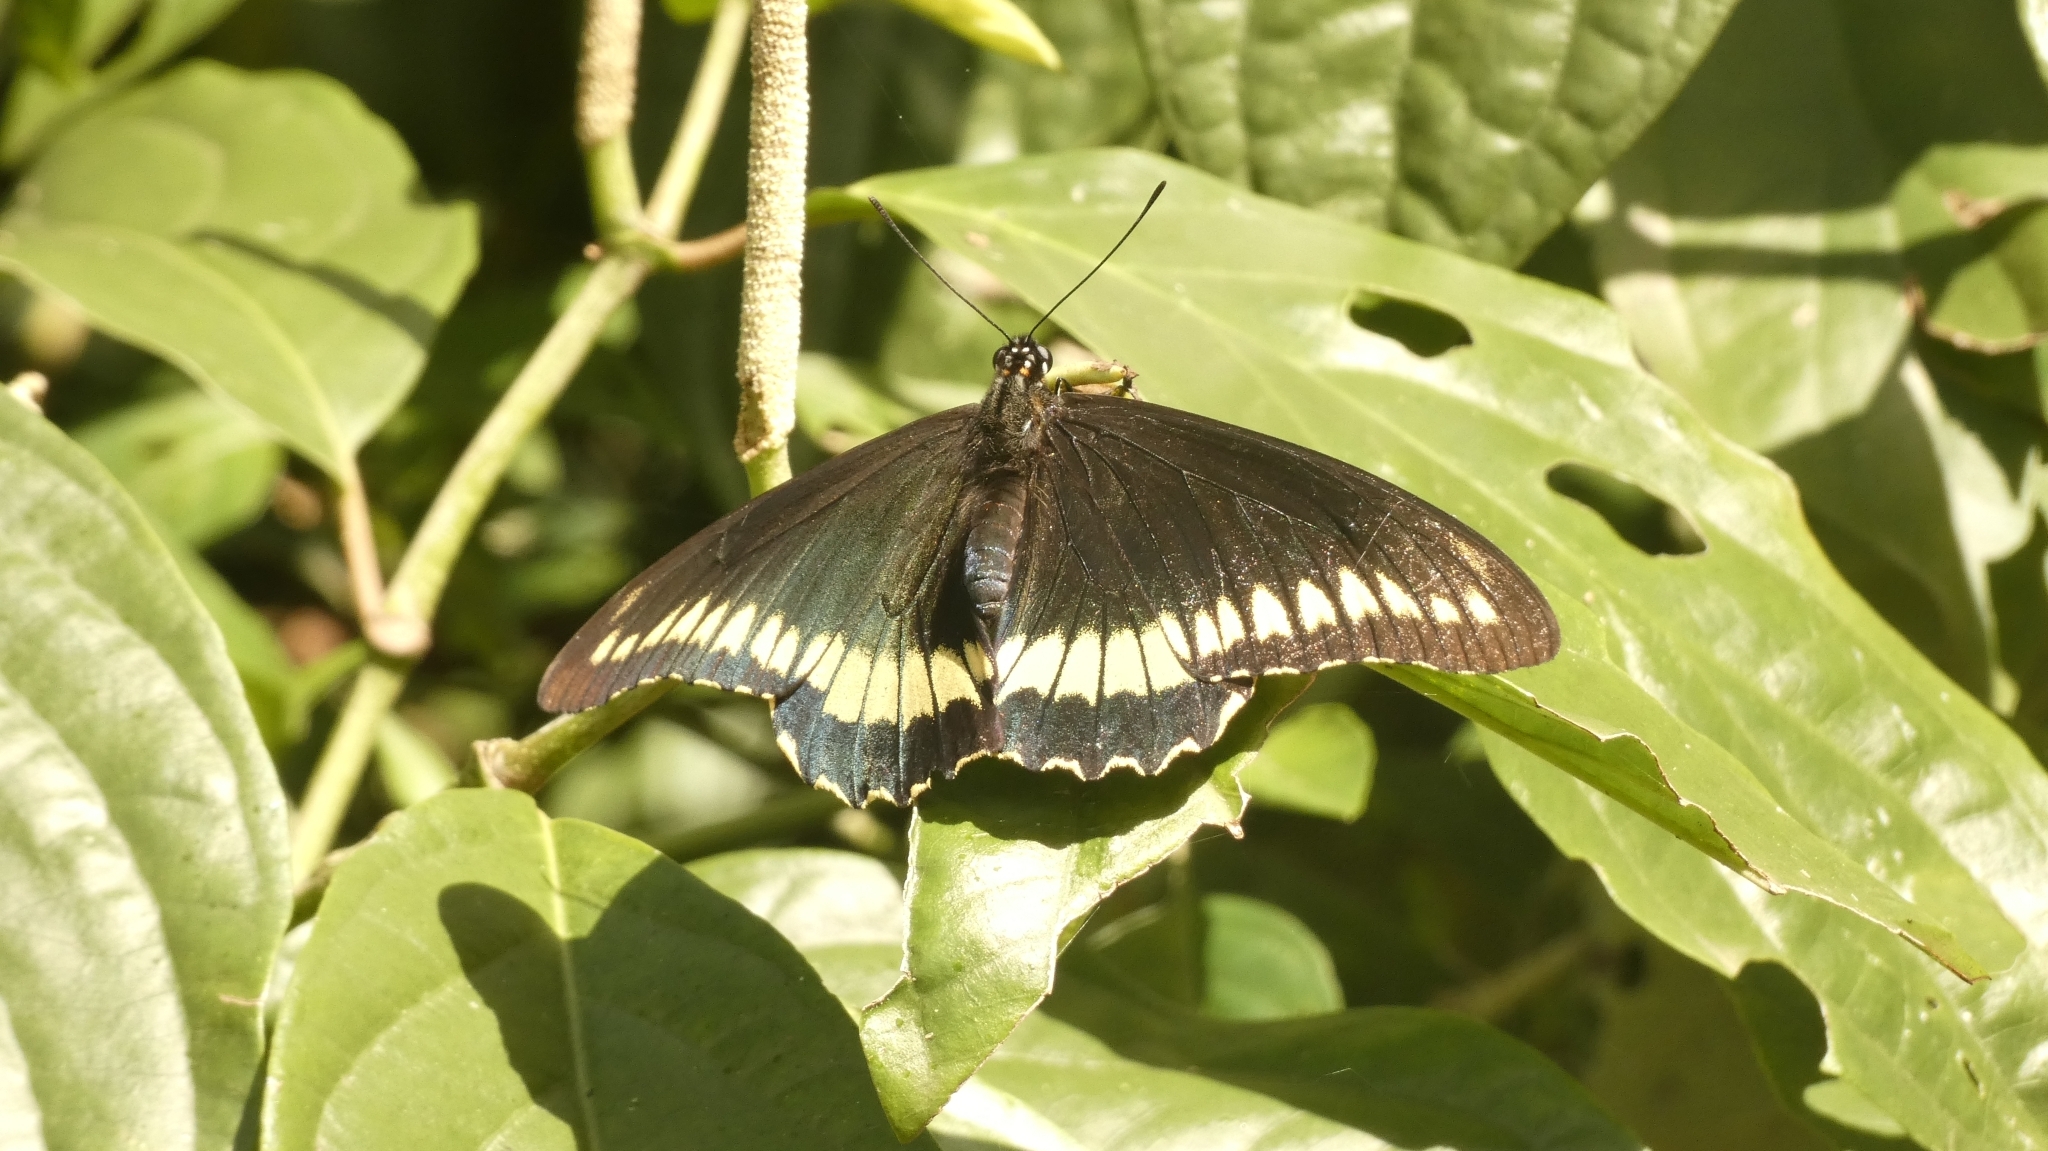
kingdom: Animalia
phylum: Arthropoda
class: Insecta
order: Lepidoptera
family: Papilionidae
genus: Battus
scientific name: Battus polydamas
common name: Polydamas swallowtail
